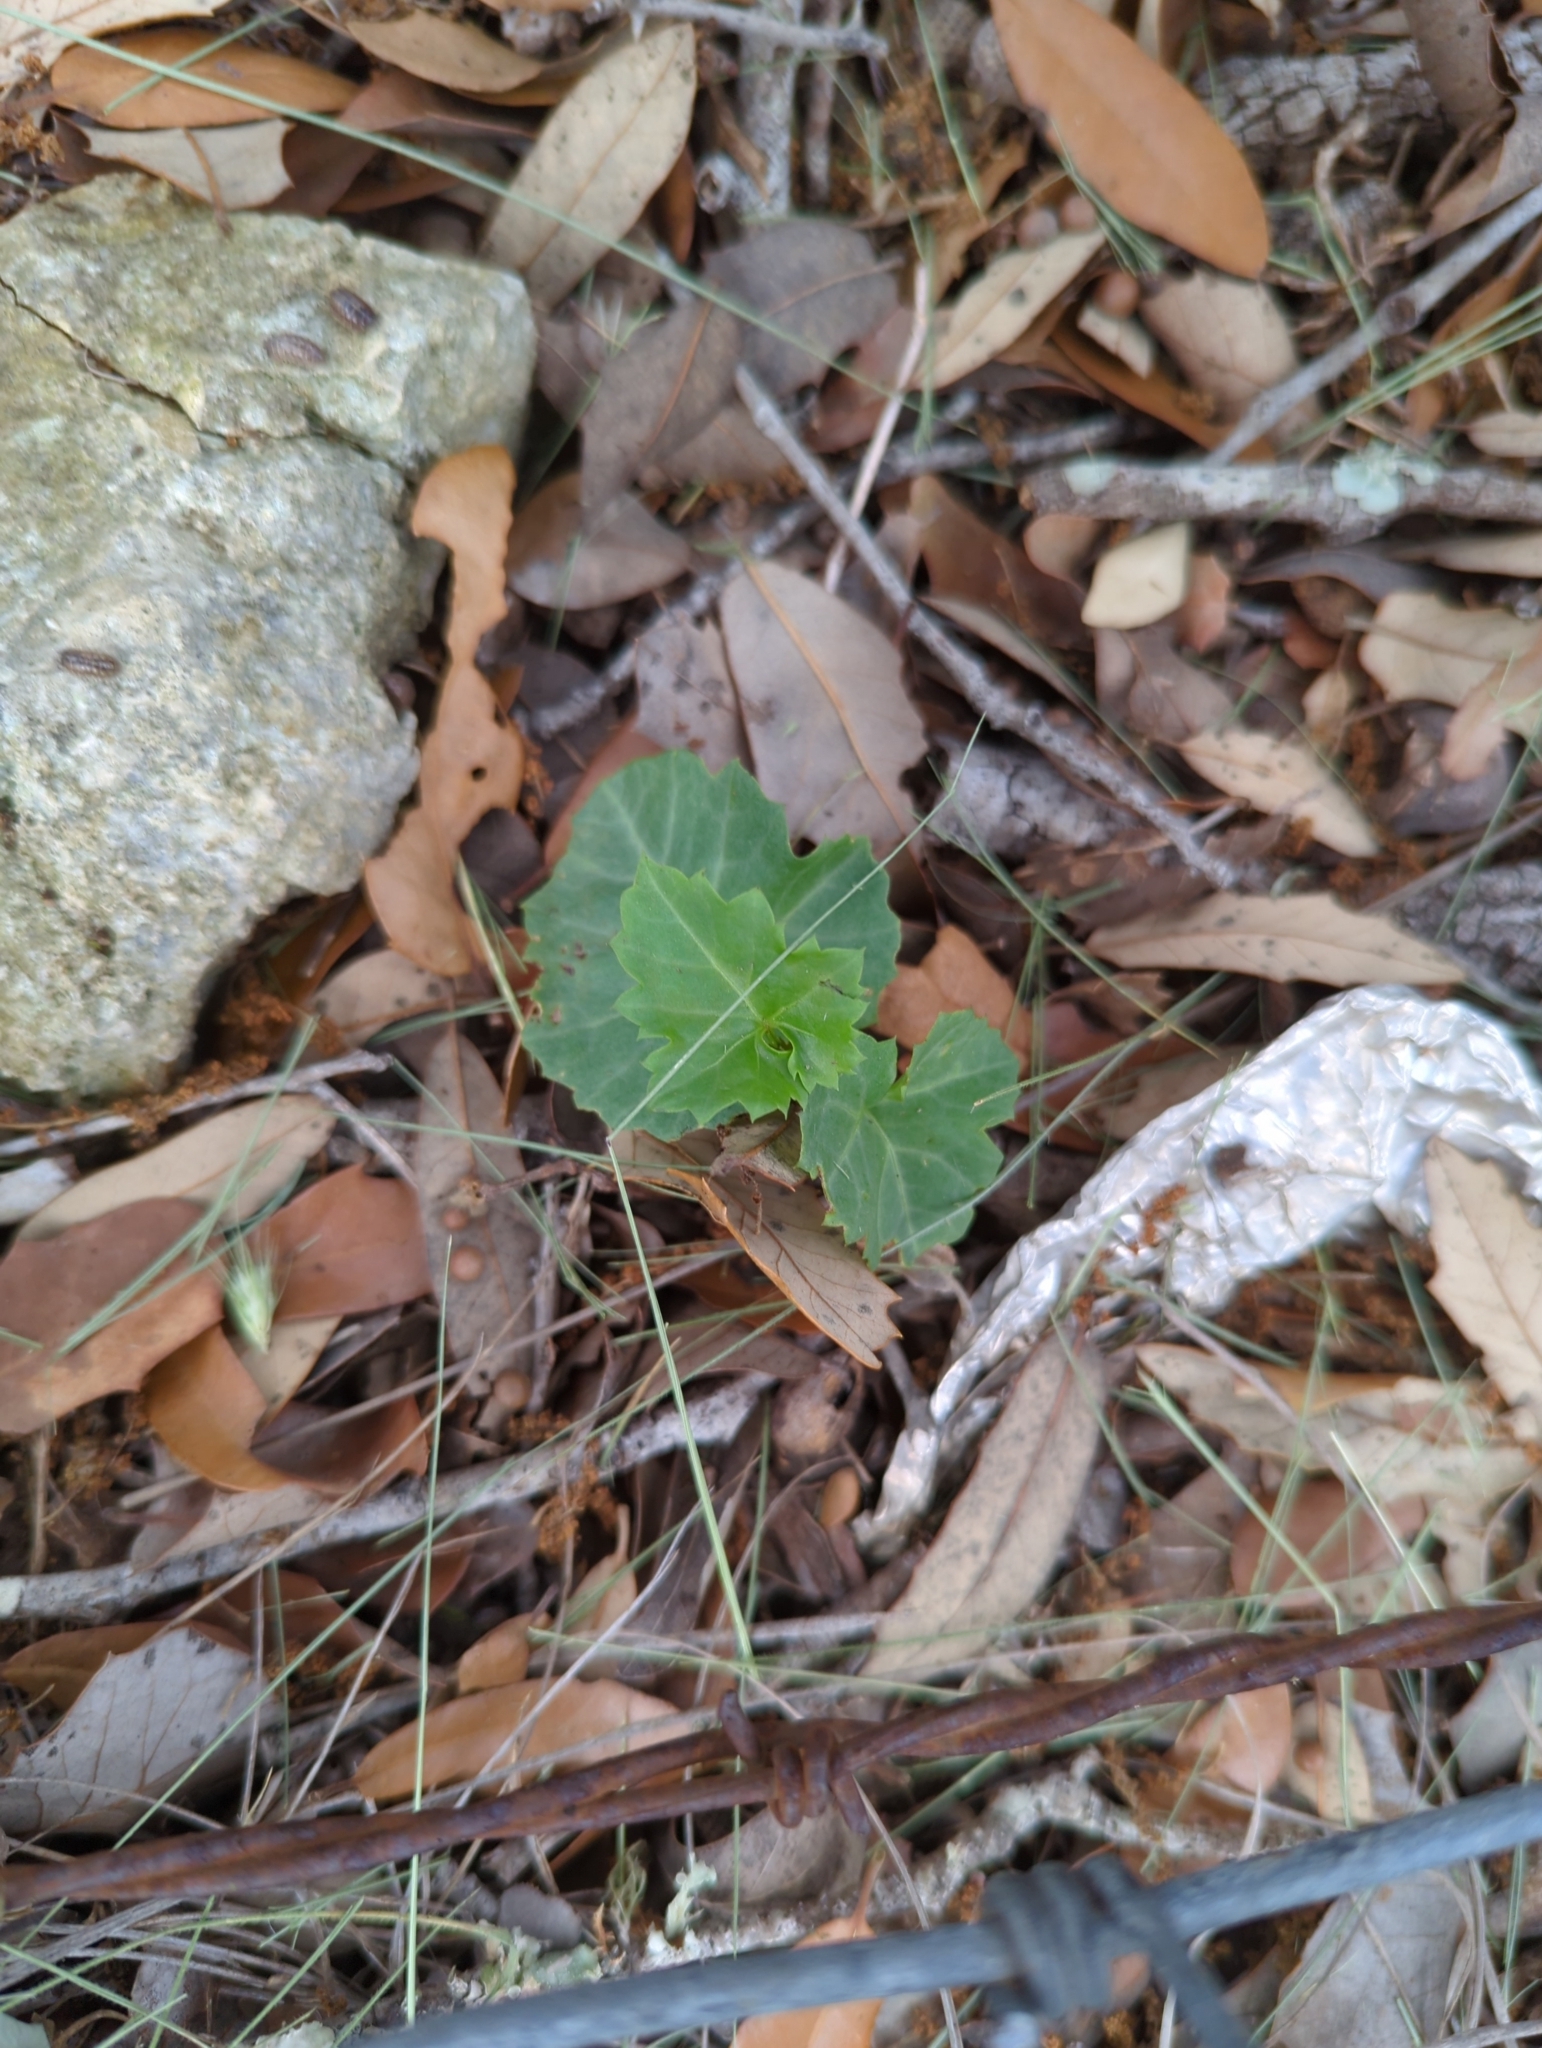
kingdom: Plantae
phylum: Tracheophyta
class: Magnoliopsida
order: Vitales
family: Vitaceae
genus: Cissus
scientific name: Cissus trifoliata
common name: Vine-sorrel
